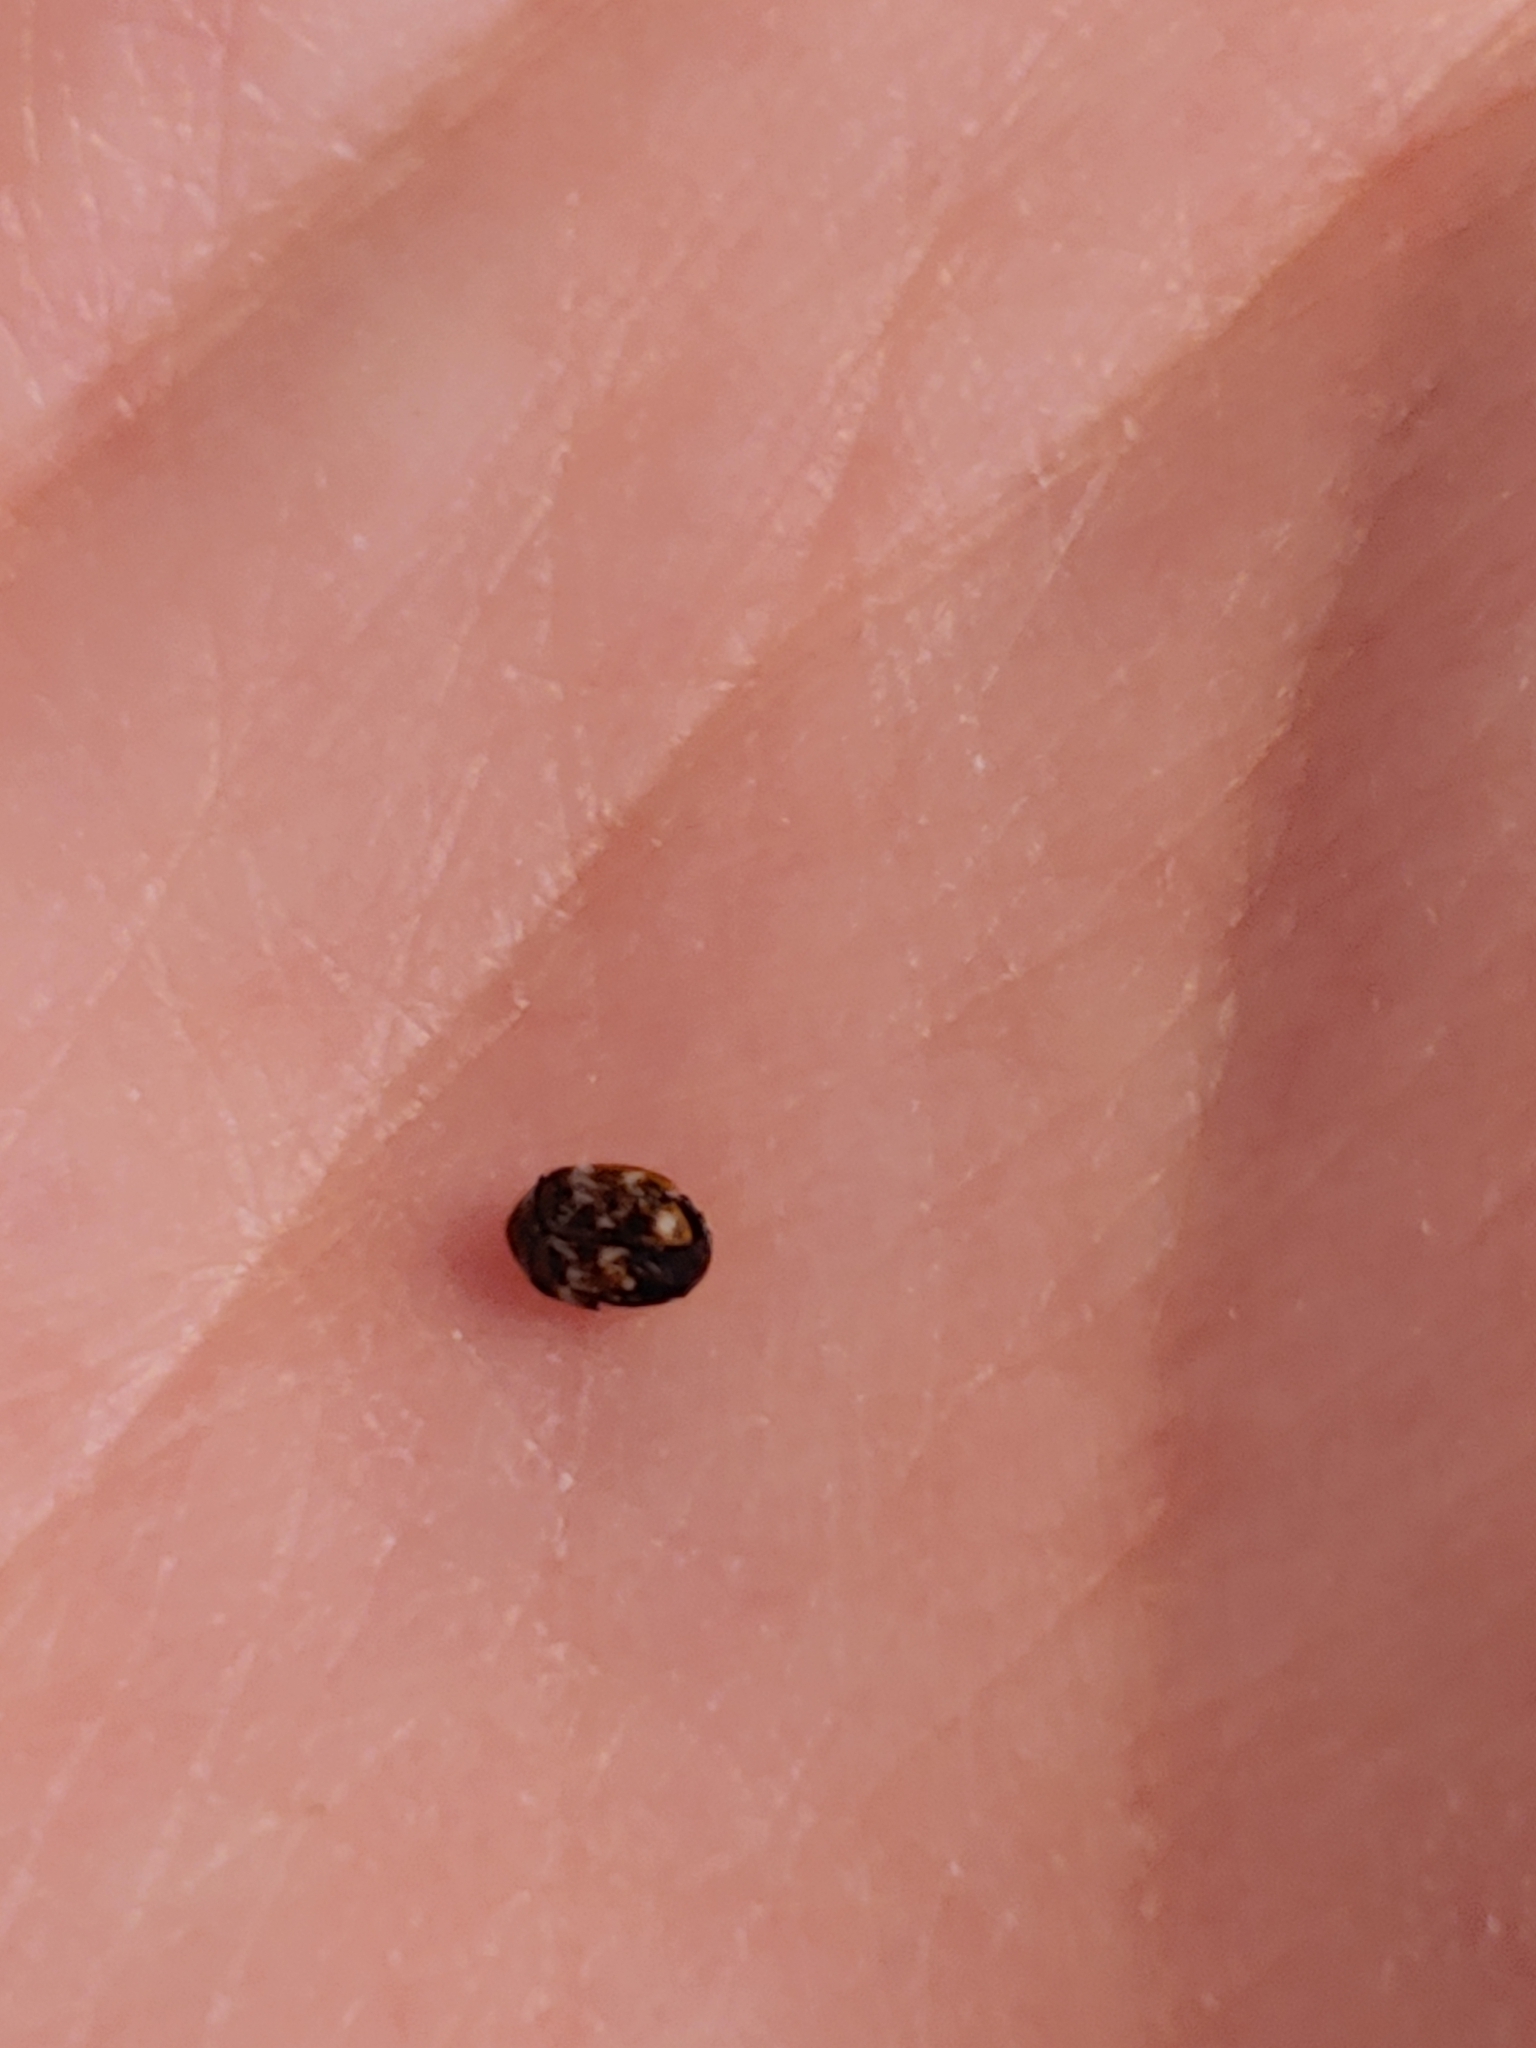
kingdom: Animalia
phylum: Arthropoda
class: Insecta
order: Coleoptera
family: Dermestidae
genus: Anthrenus
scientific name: Anthrenus verbasci
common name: Varied carpet beetle
